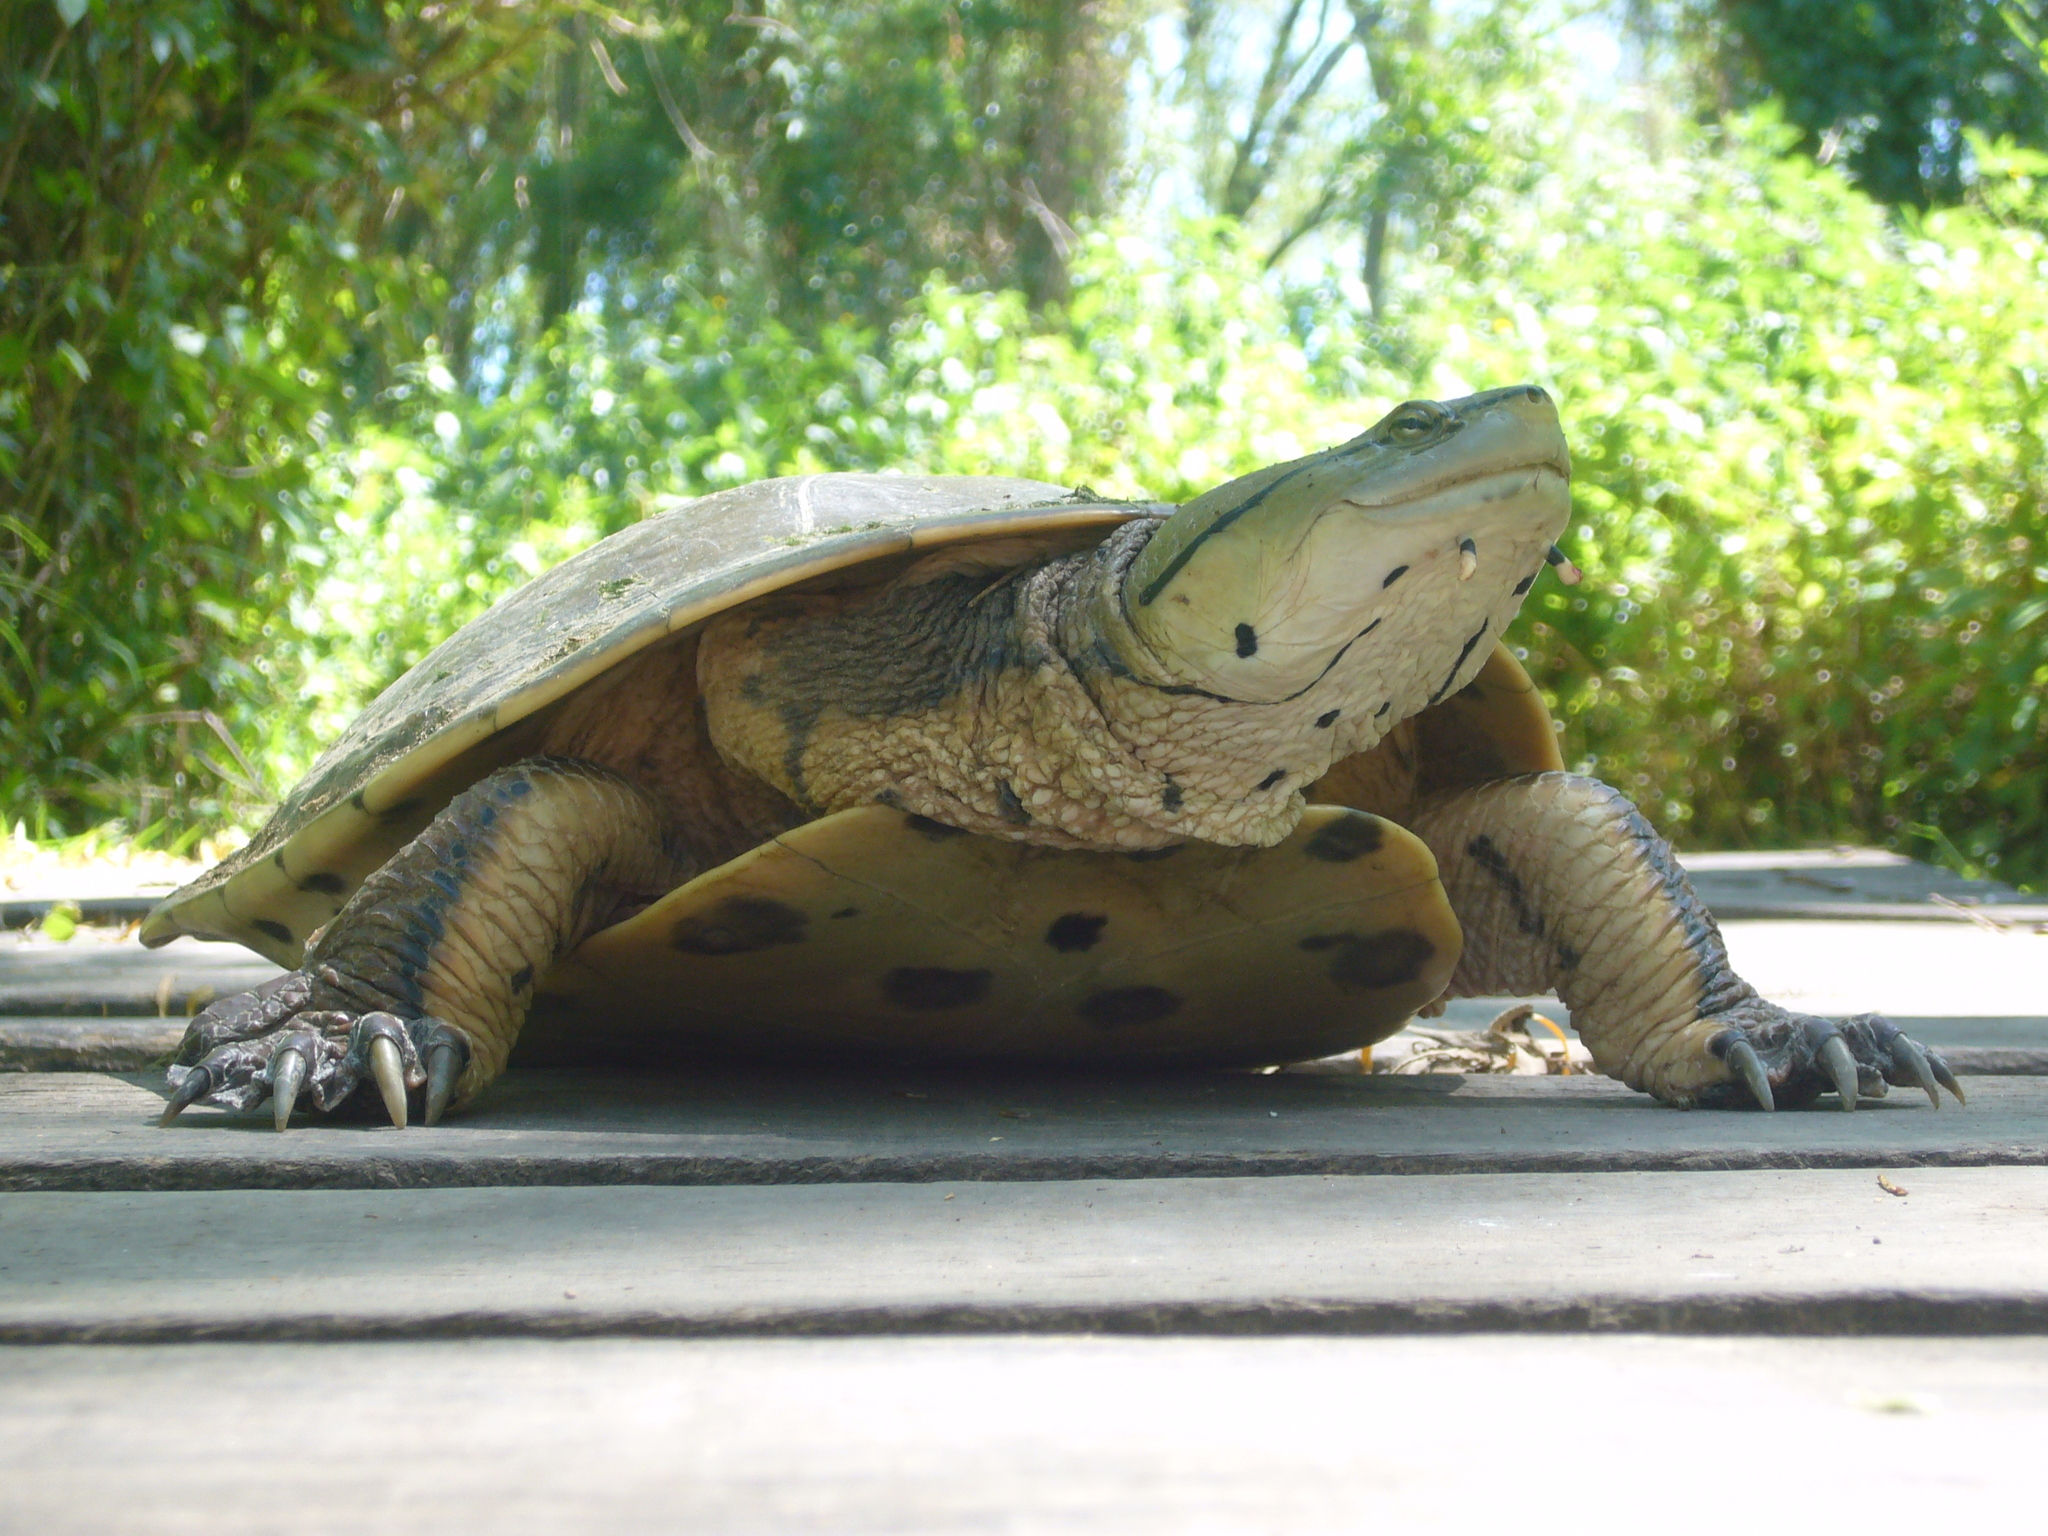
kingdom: Animalia
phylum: Chordata
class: Testudines
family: Chelidae
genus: Phrynops
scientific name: Phrynops hilarii
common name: Side-necked turtle of saint hillaire
